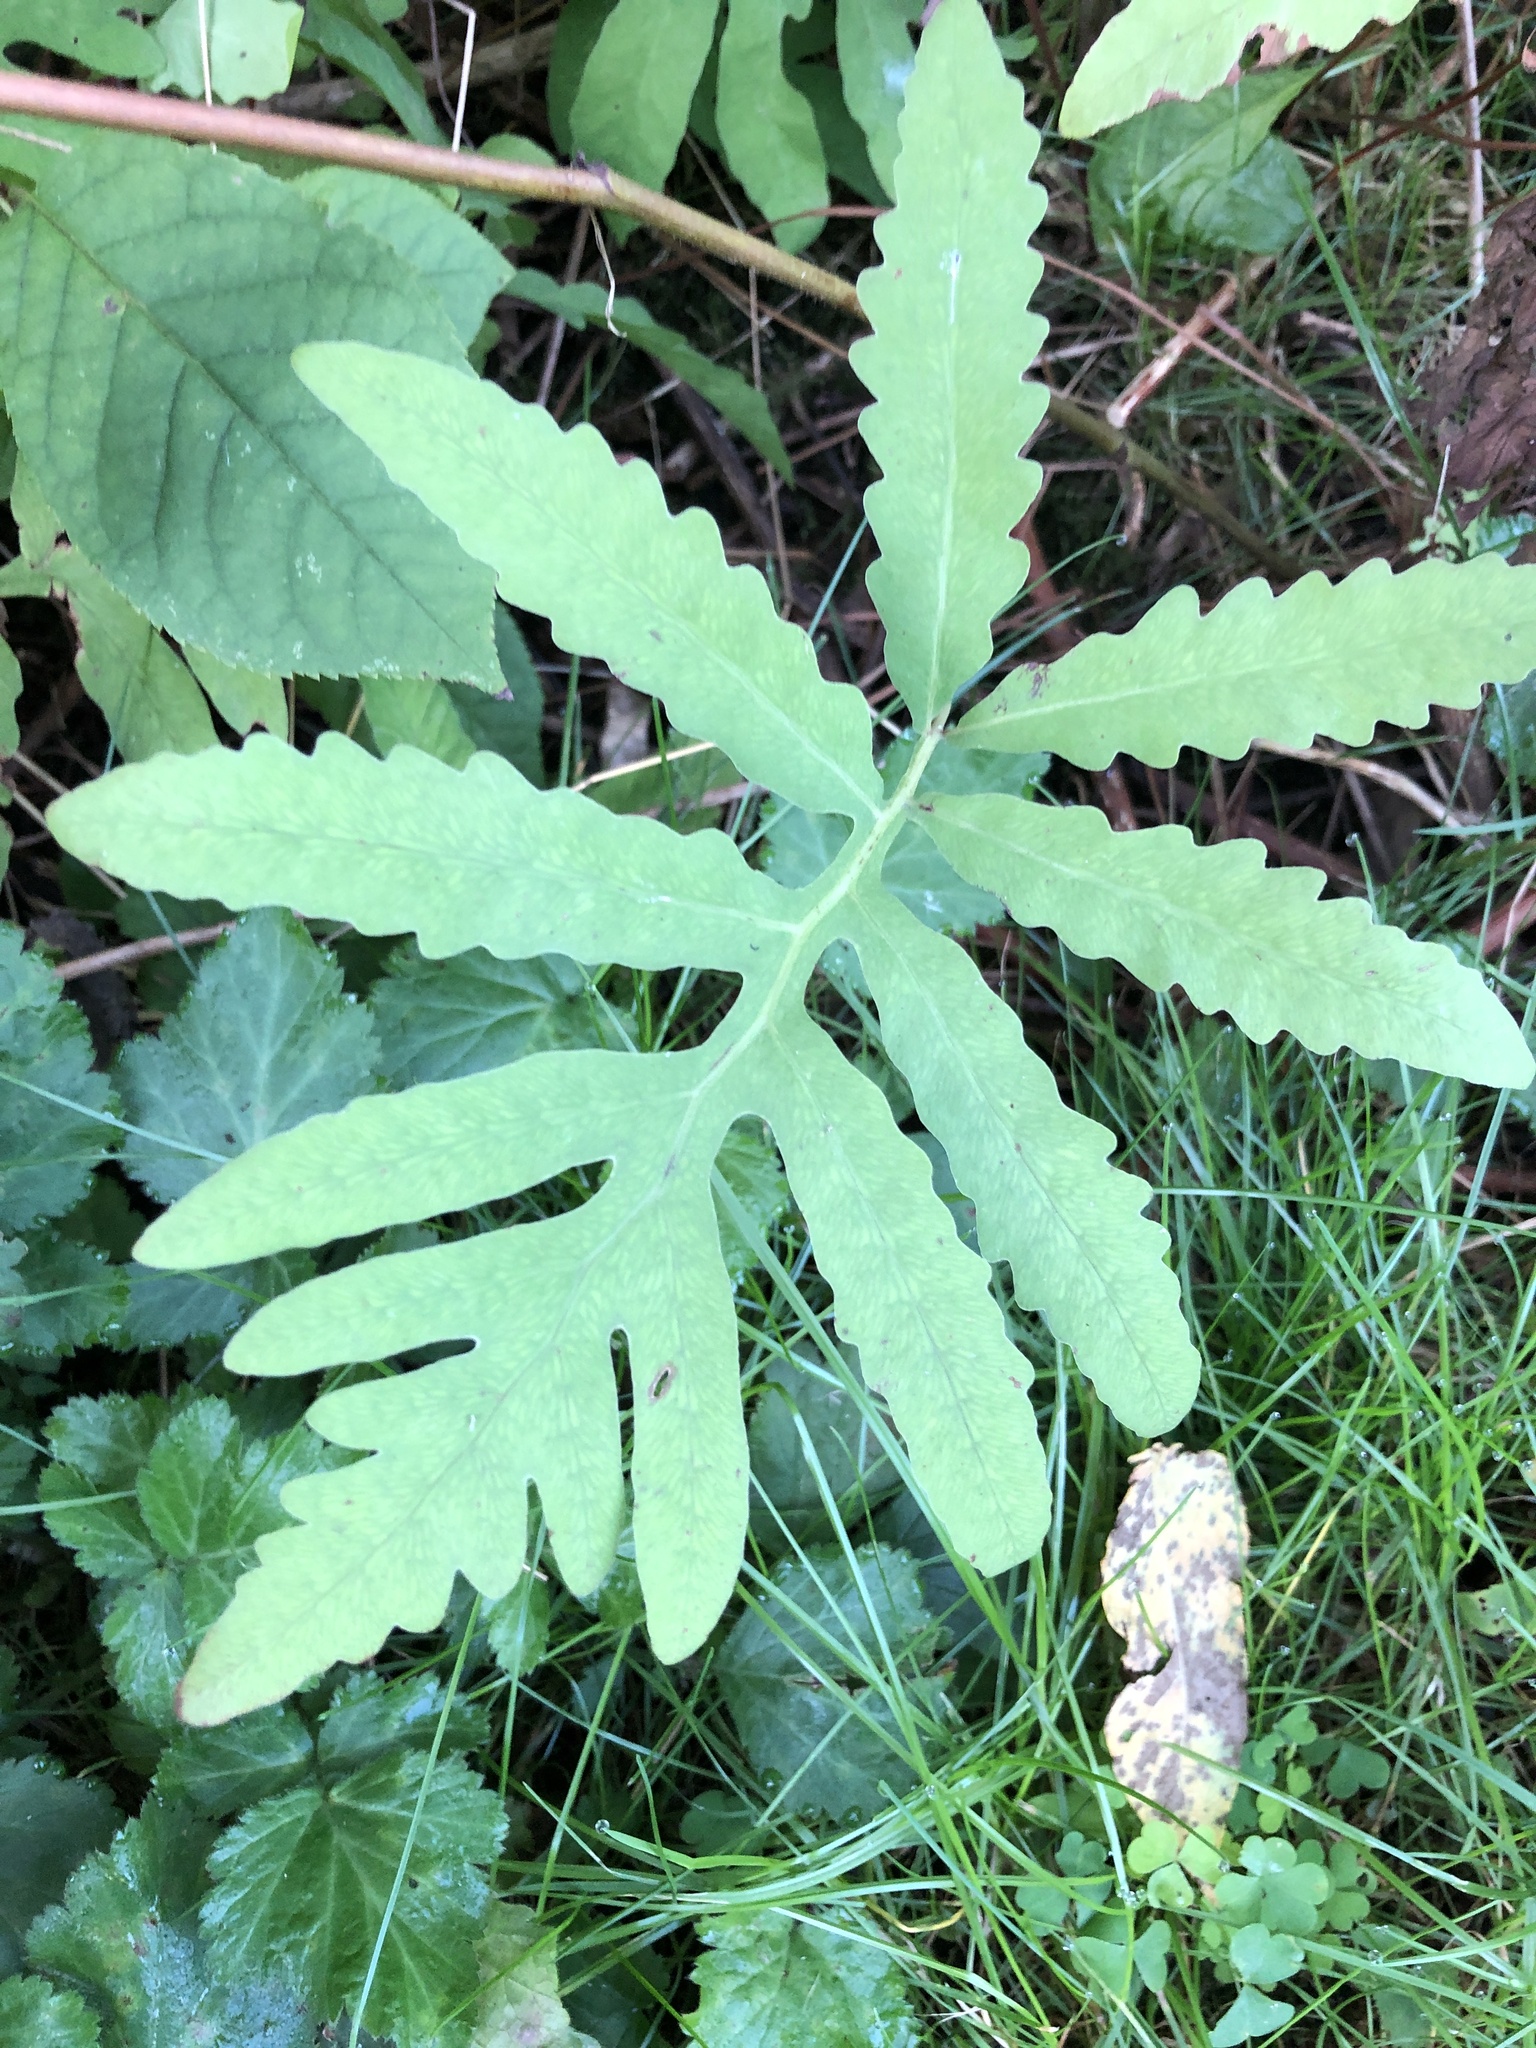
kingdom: Plantae
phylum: Tracheophyta
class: Polypodiopsida
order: Polypodiales
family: Onocleaceae
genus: Onoclea
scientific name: Onoclea sensibilis
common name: Sensitive fern
